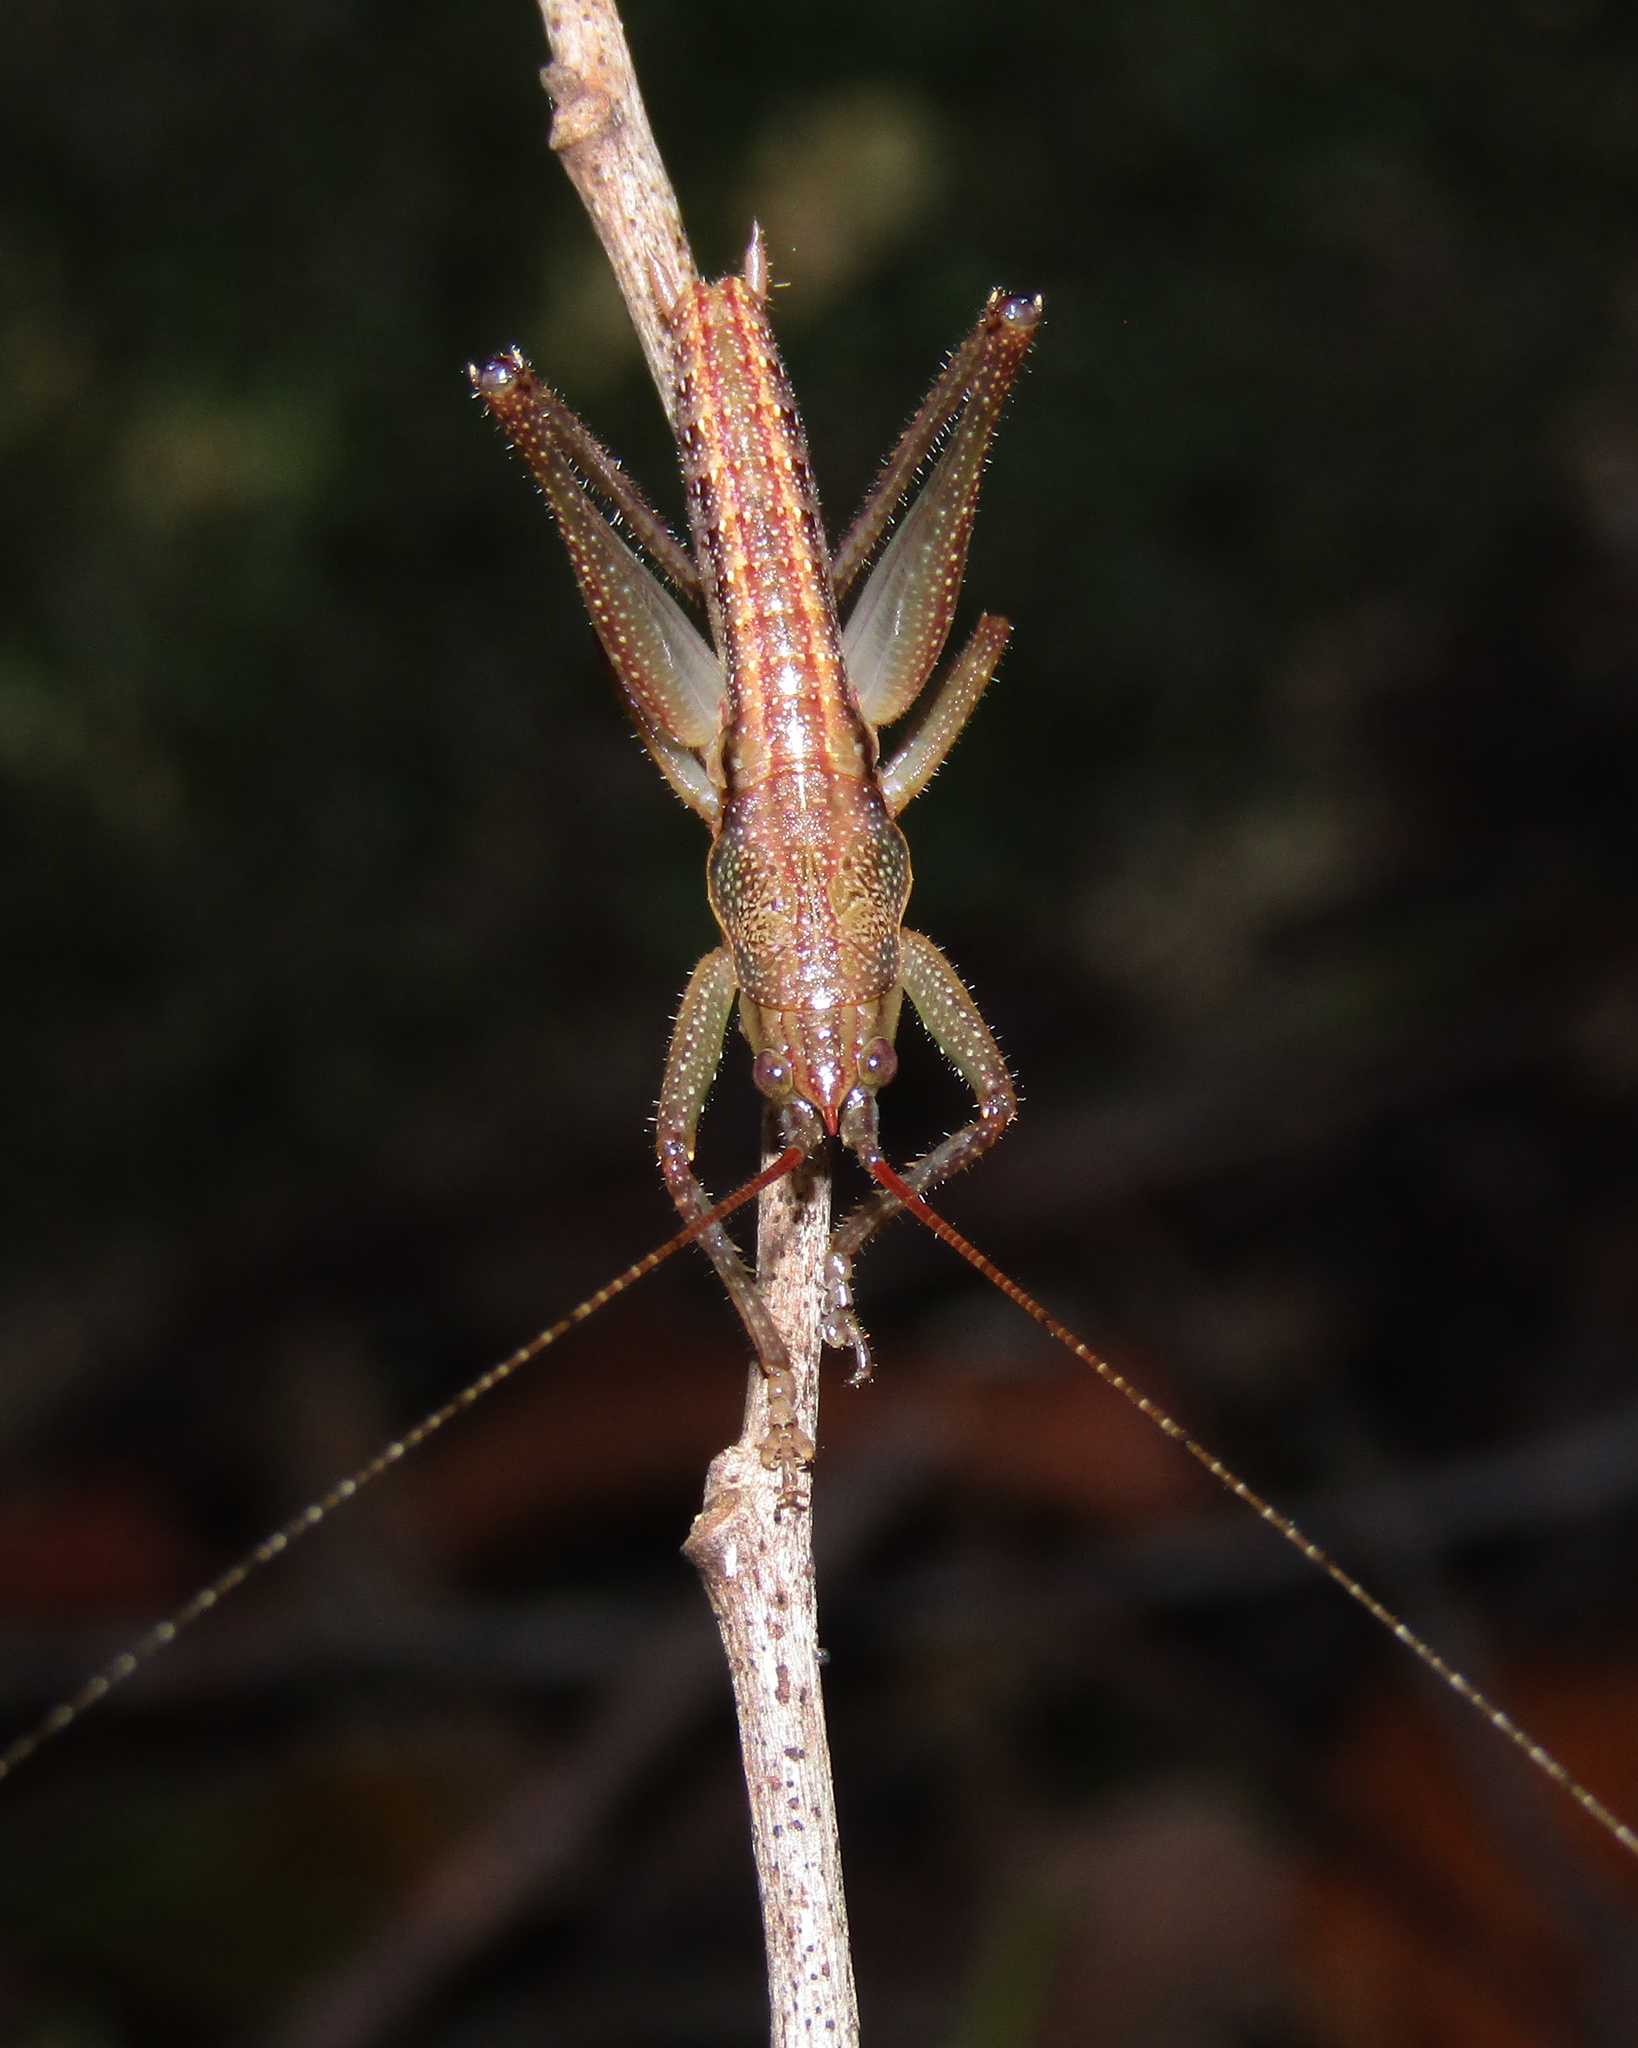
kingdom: Animalia
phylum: Arthropoda
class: Insecta
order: Orthoptera
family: Tettigoniidae
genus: Austrosalomona
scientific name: Austrosalomona falcata
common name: Olive-green coastal katydid
